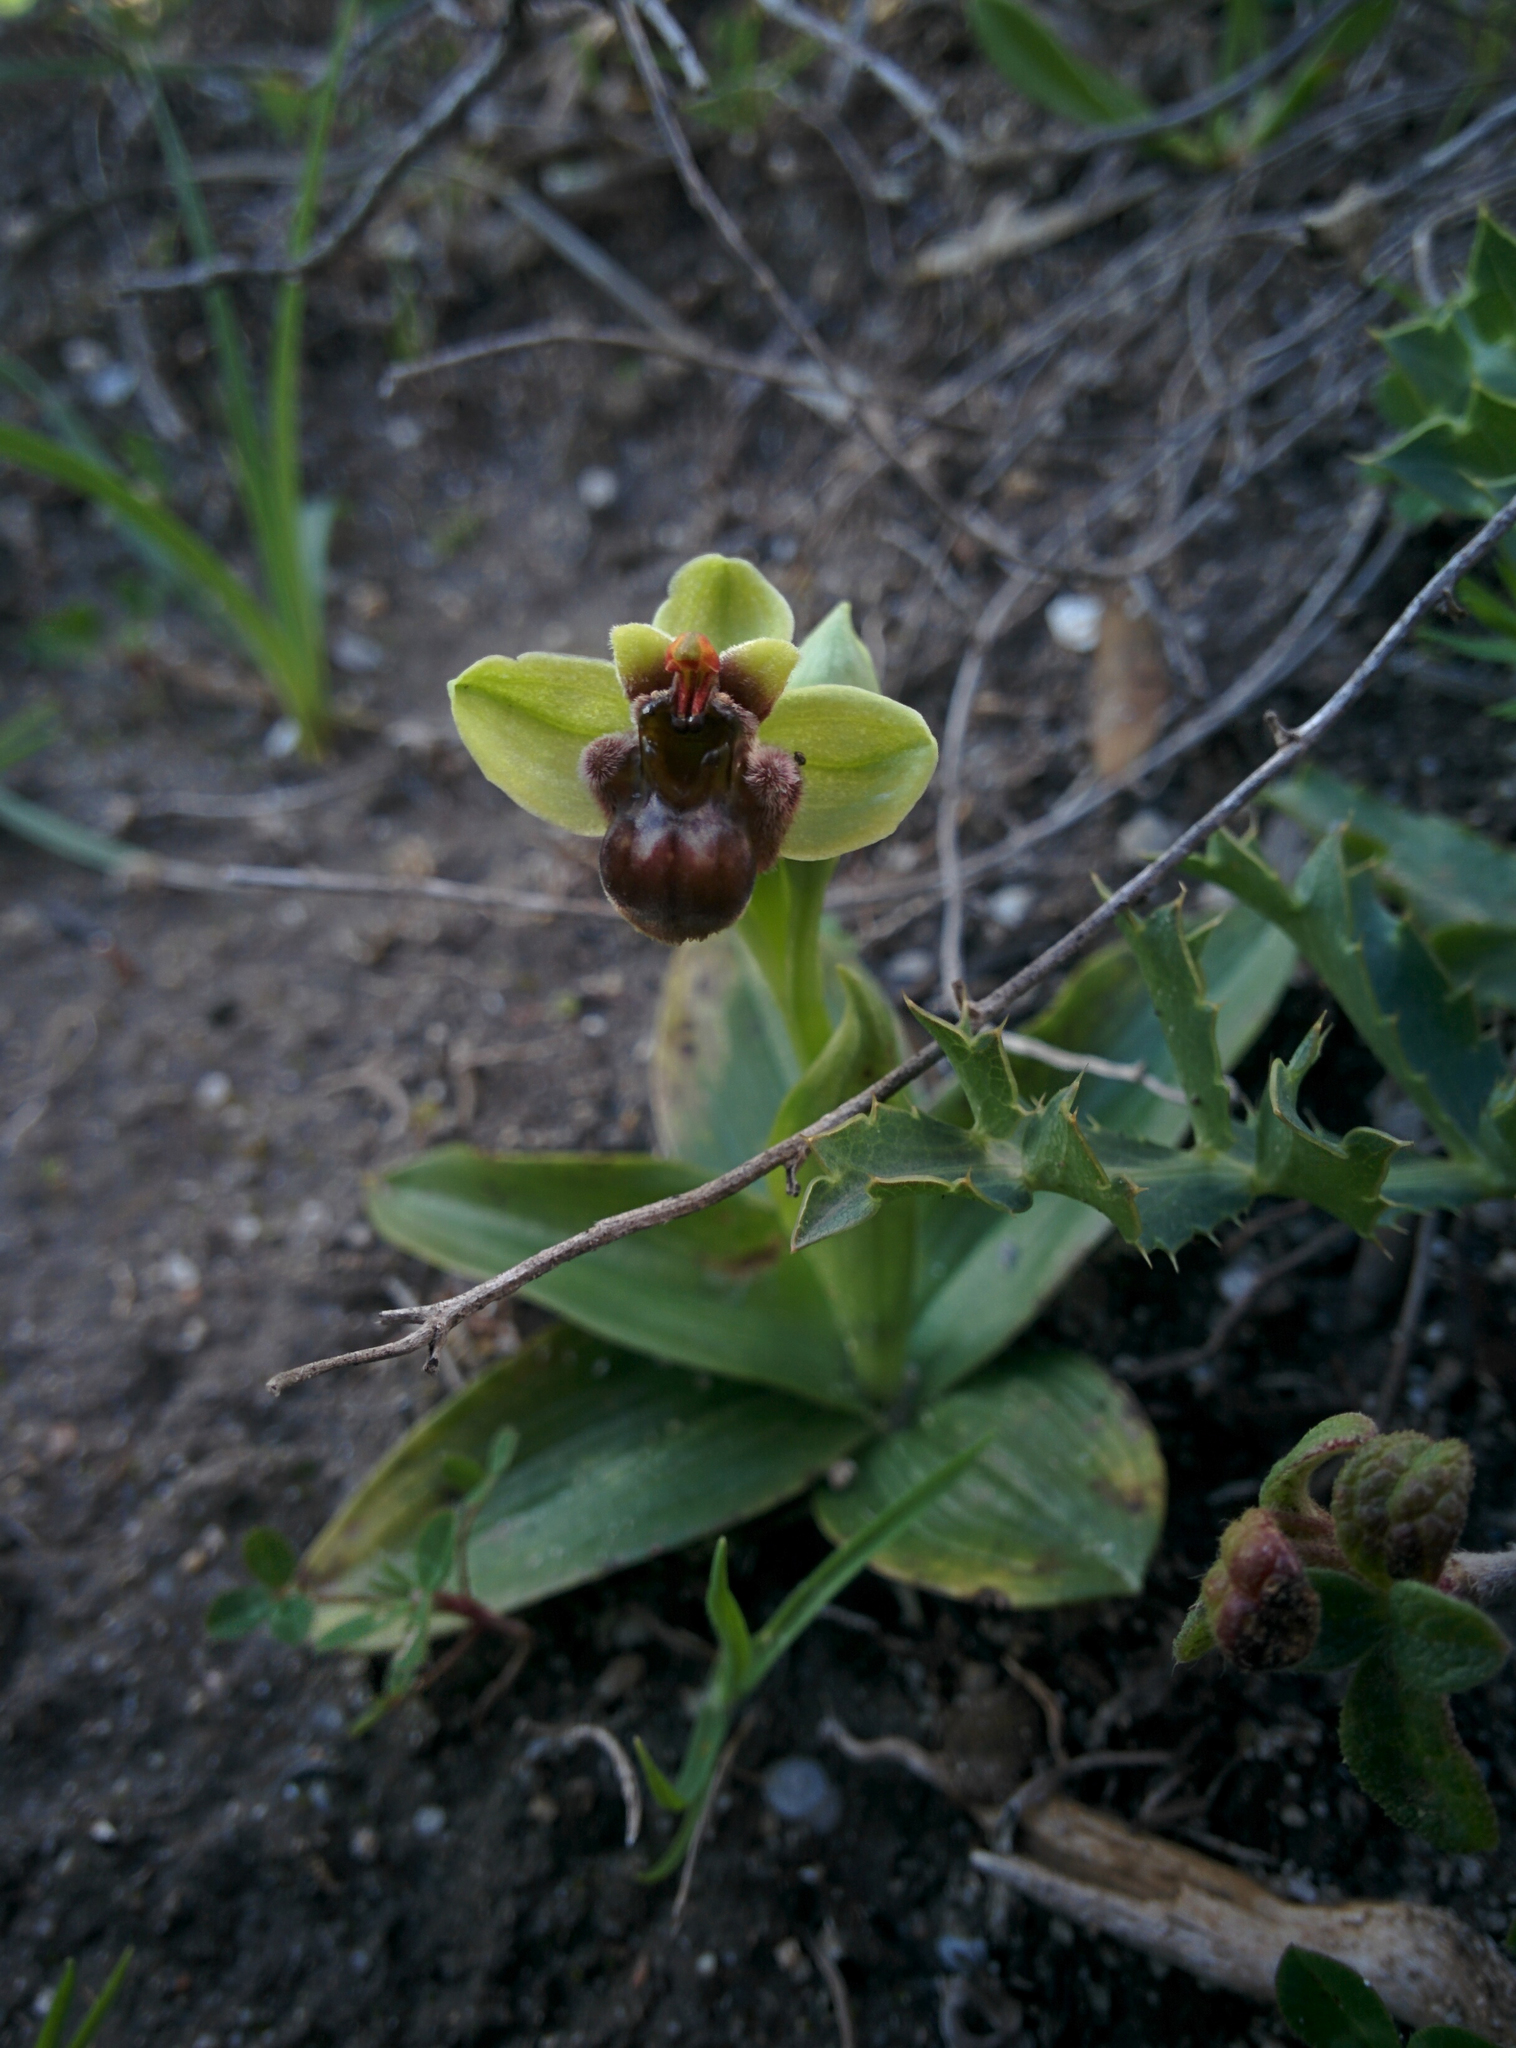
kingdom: Plantae
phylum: Tracheophyta
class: Liliopsida
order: Asparagales
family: Orchidaceae
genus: Ophrys
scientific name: Ophrys bombyliflora
